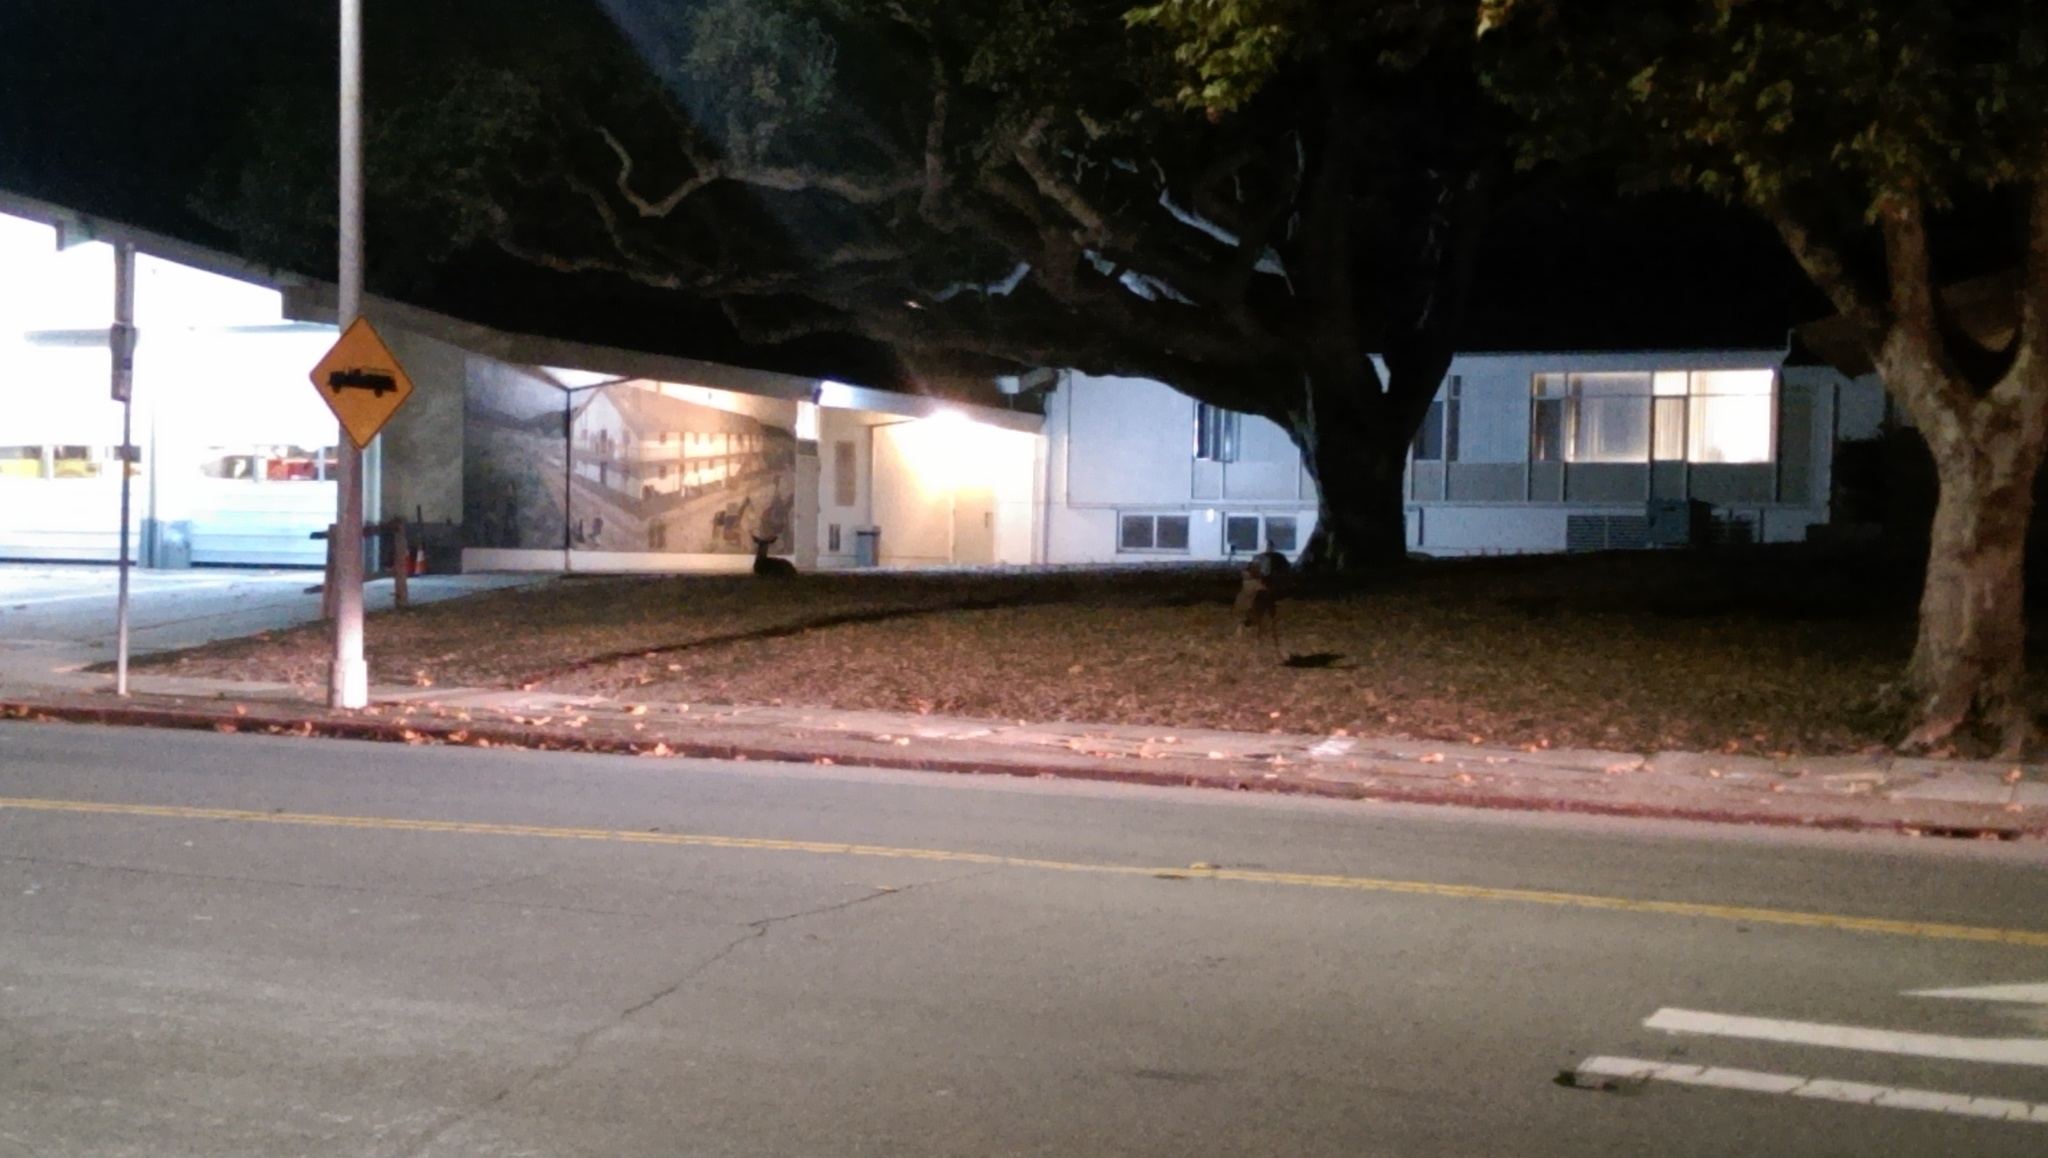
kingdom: Animalia
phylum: Chordata
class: Mammalia
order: Artiodactyla
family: Cervidae
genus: Odocoileus
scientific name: Odocoileus hemionus
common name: Mule deer
